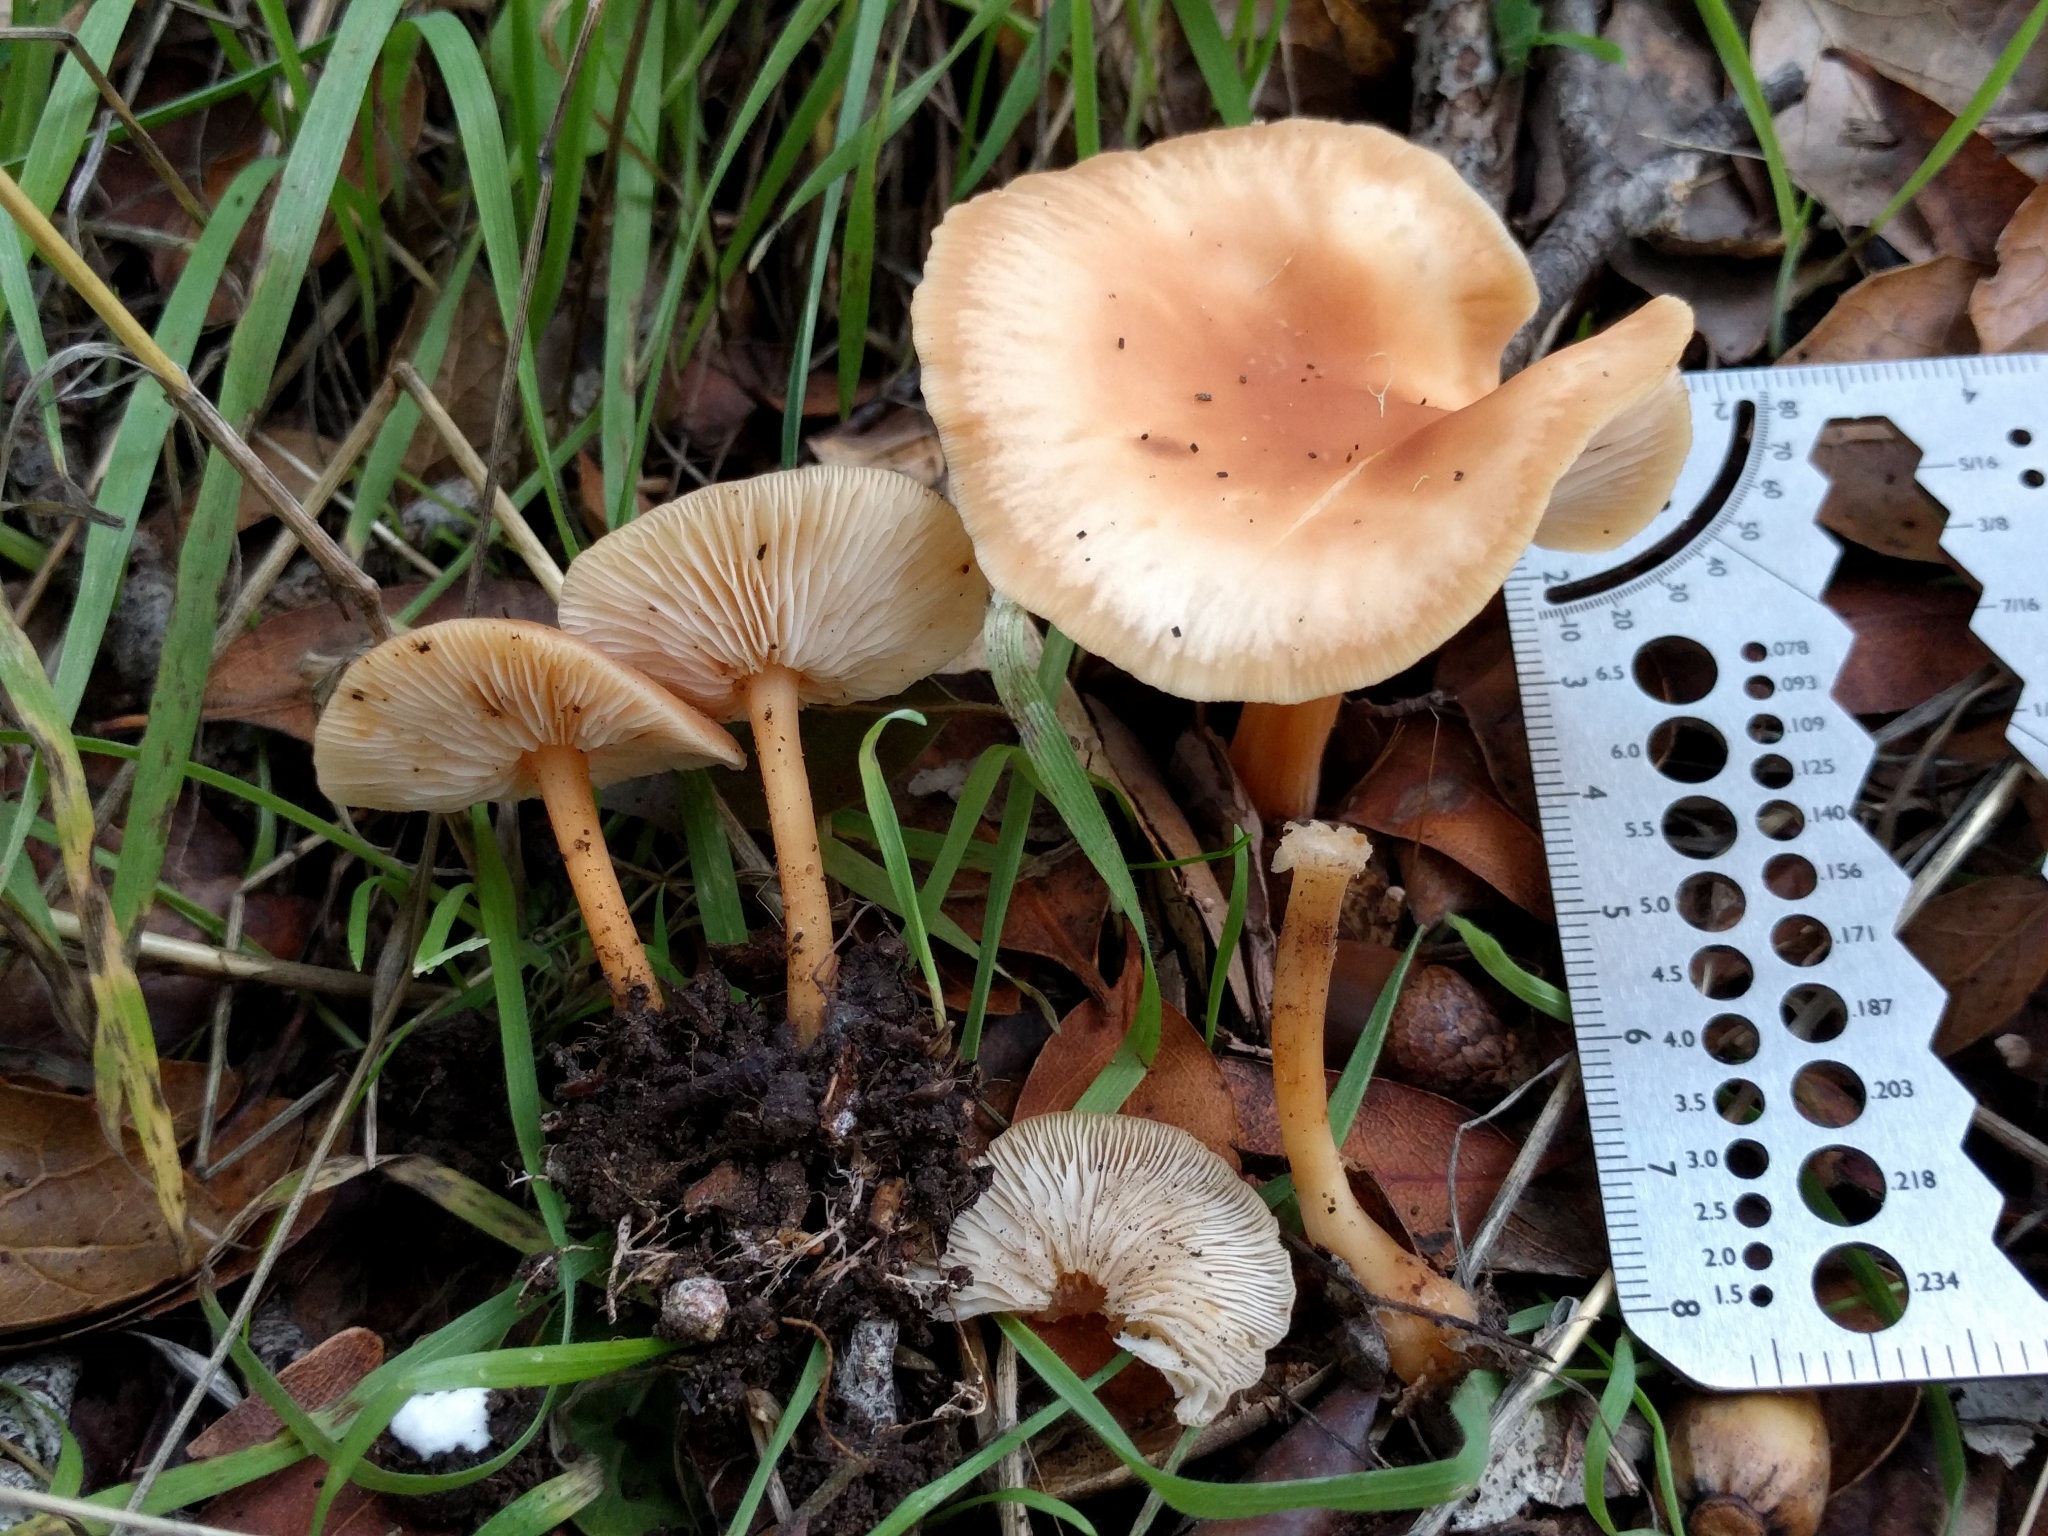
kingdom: Fungi
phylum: Basidiomycota
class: Agaricomycetes
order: Agaricales
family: Omphalotaceae
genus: Gymnopus
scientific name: Gymnopus dryophilus
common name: Penny top
